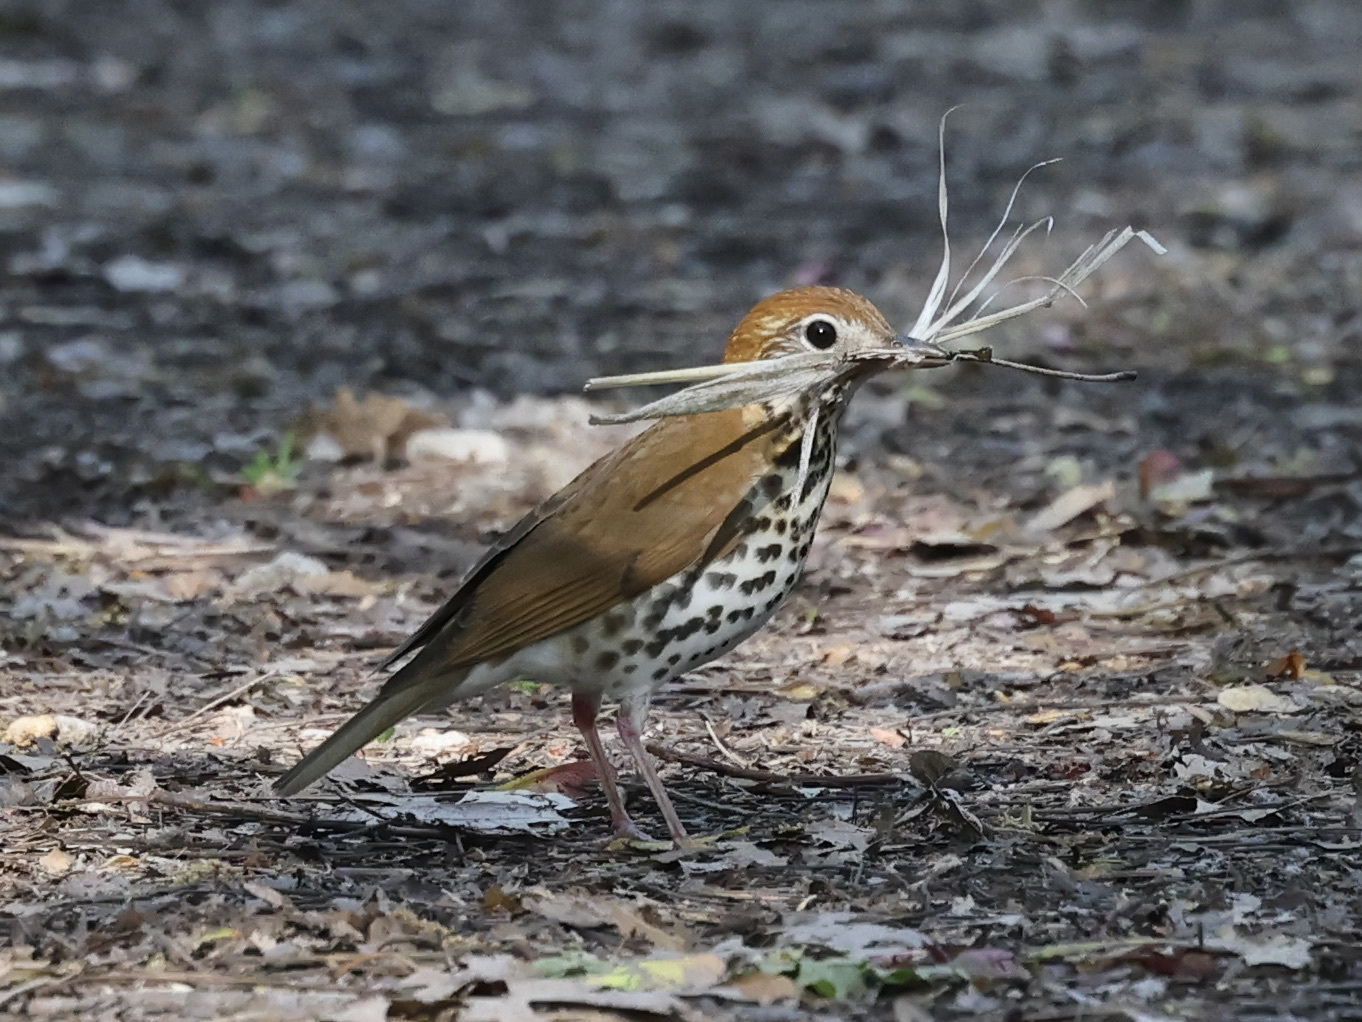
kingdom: Animalia
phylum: Chordata
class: Aves
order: Passeriformes
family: Turdidae
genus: Hylocichla
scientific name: Hylocichla mustelina
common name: Wood thrush
